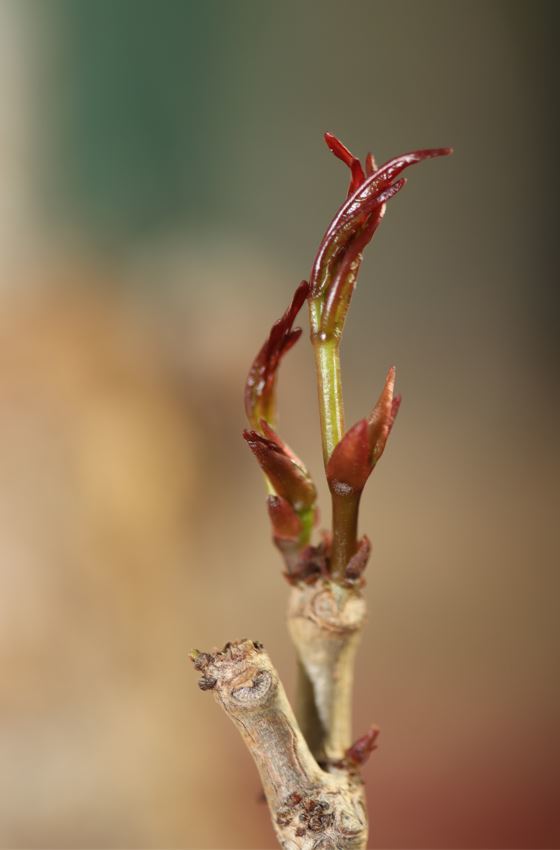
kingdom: Plantae
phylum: Tracheophyta
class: Magnoliopsida
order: Vitales
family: Vitaceae
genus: Cyphostemma
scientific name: Cyphostemma pachypus
